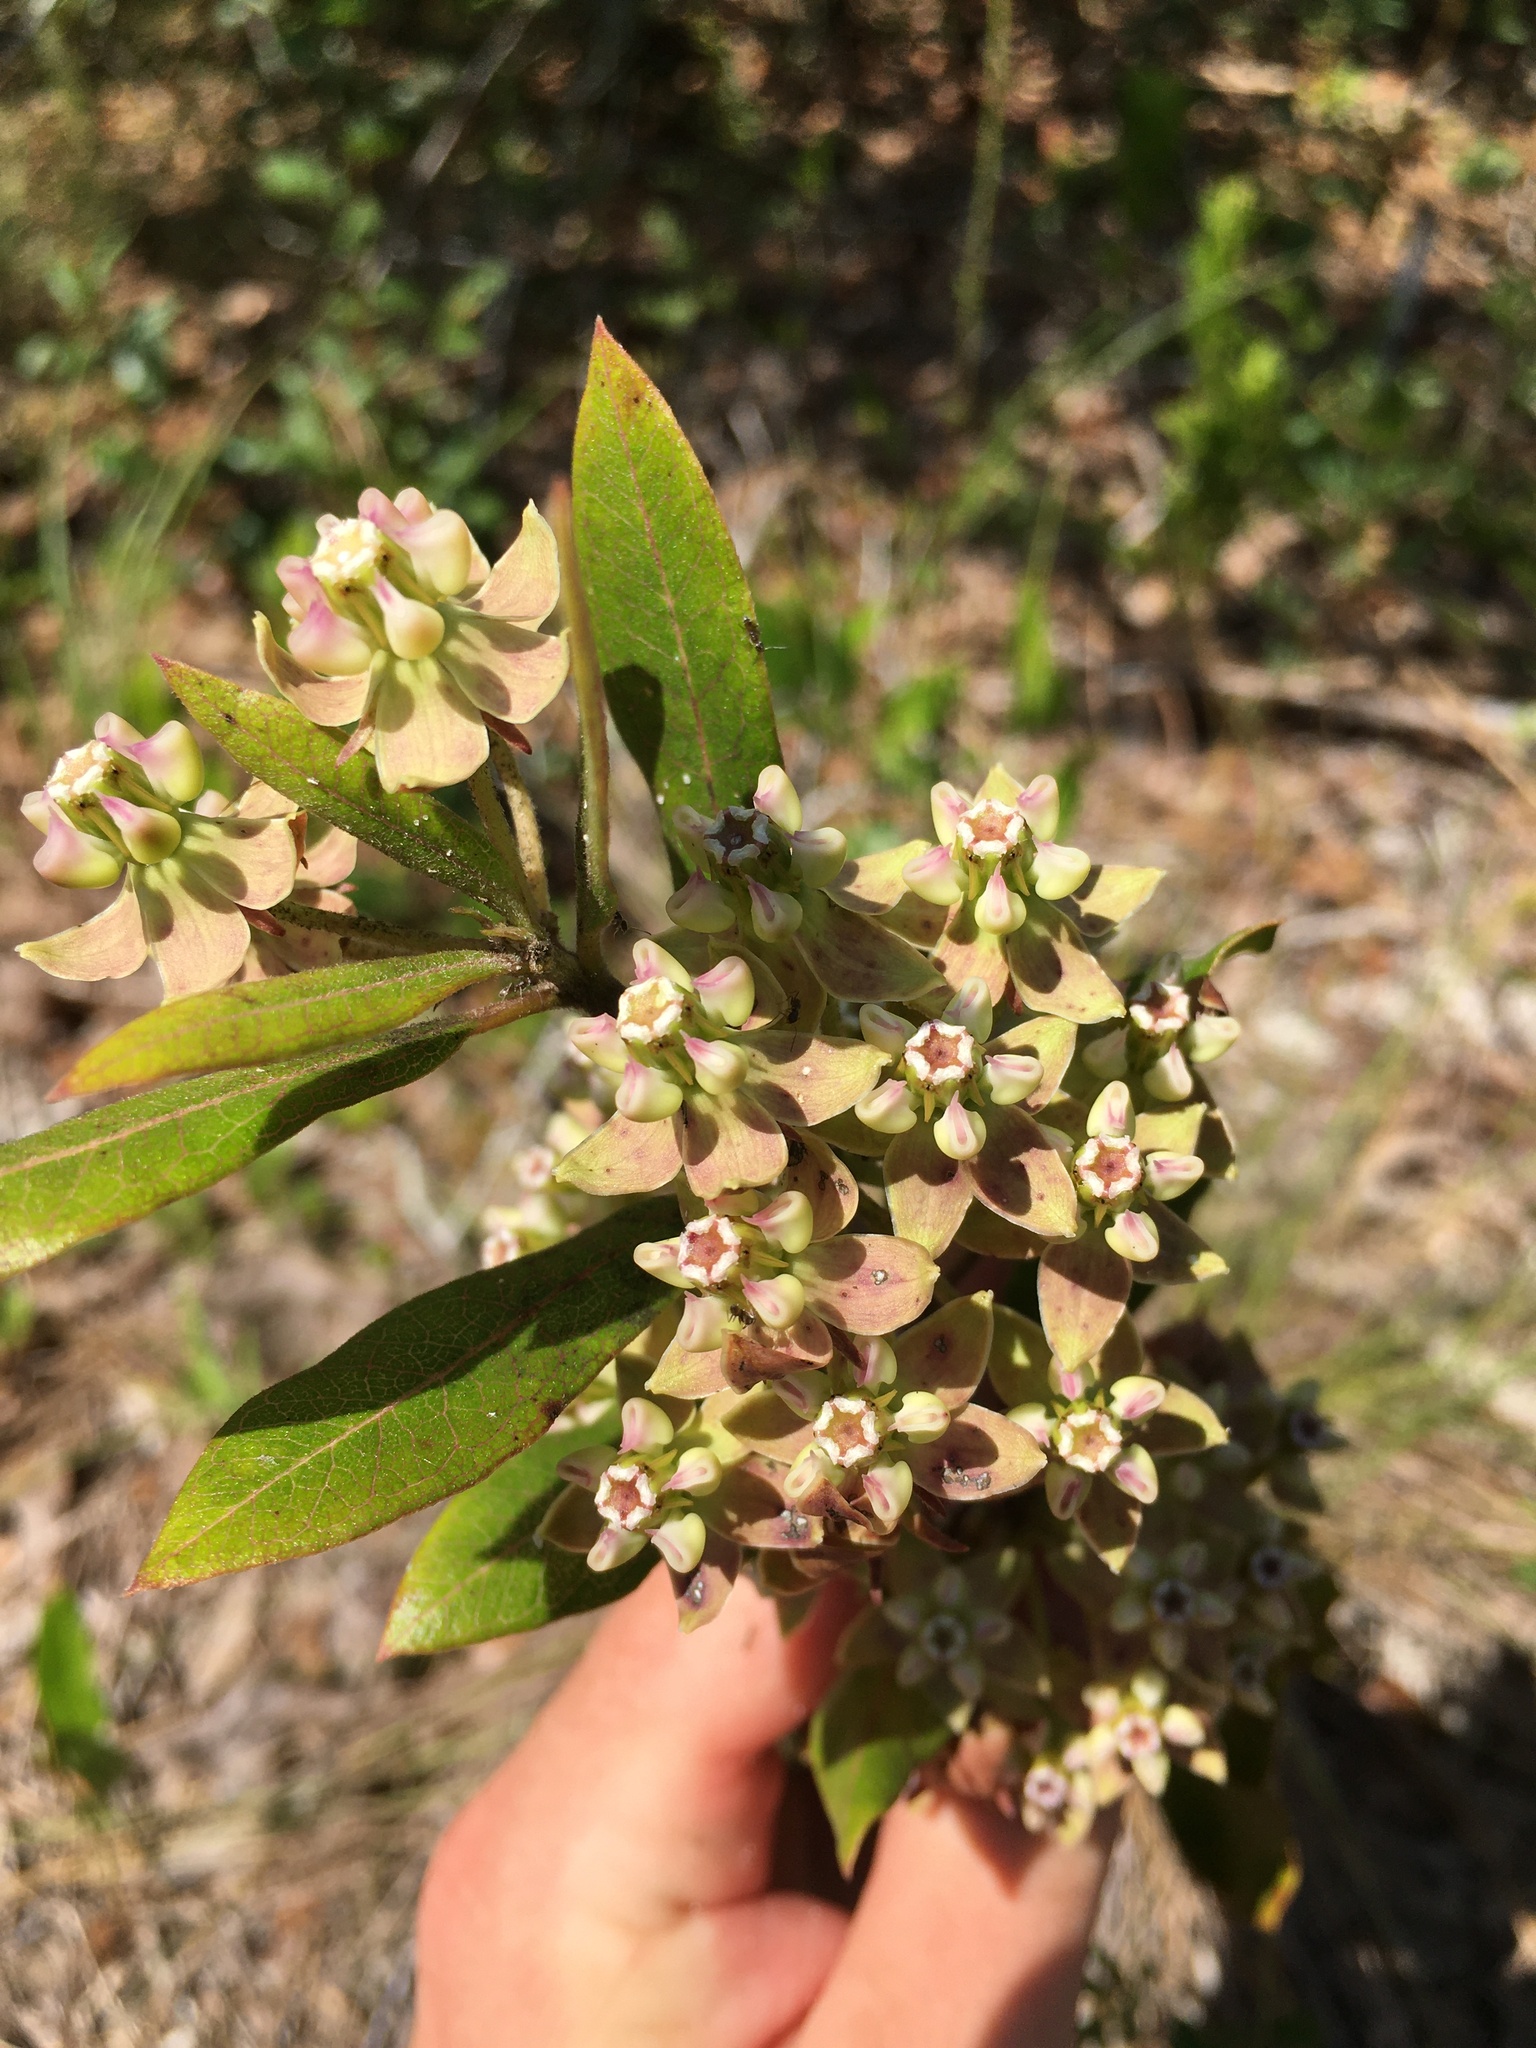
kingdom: Plantae
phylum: Tracheophyta
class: Magnoliopsida
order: Gentianales
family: Apocynaceae
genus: Asclepias
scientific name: Asclepias tomentosa
